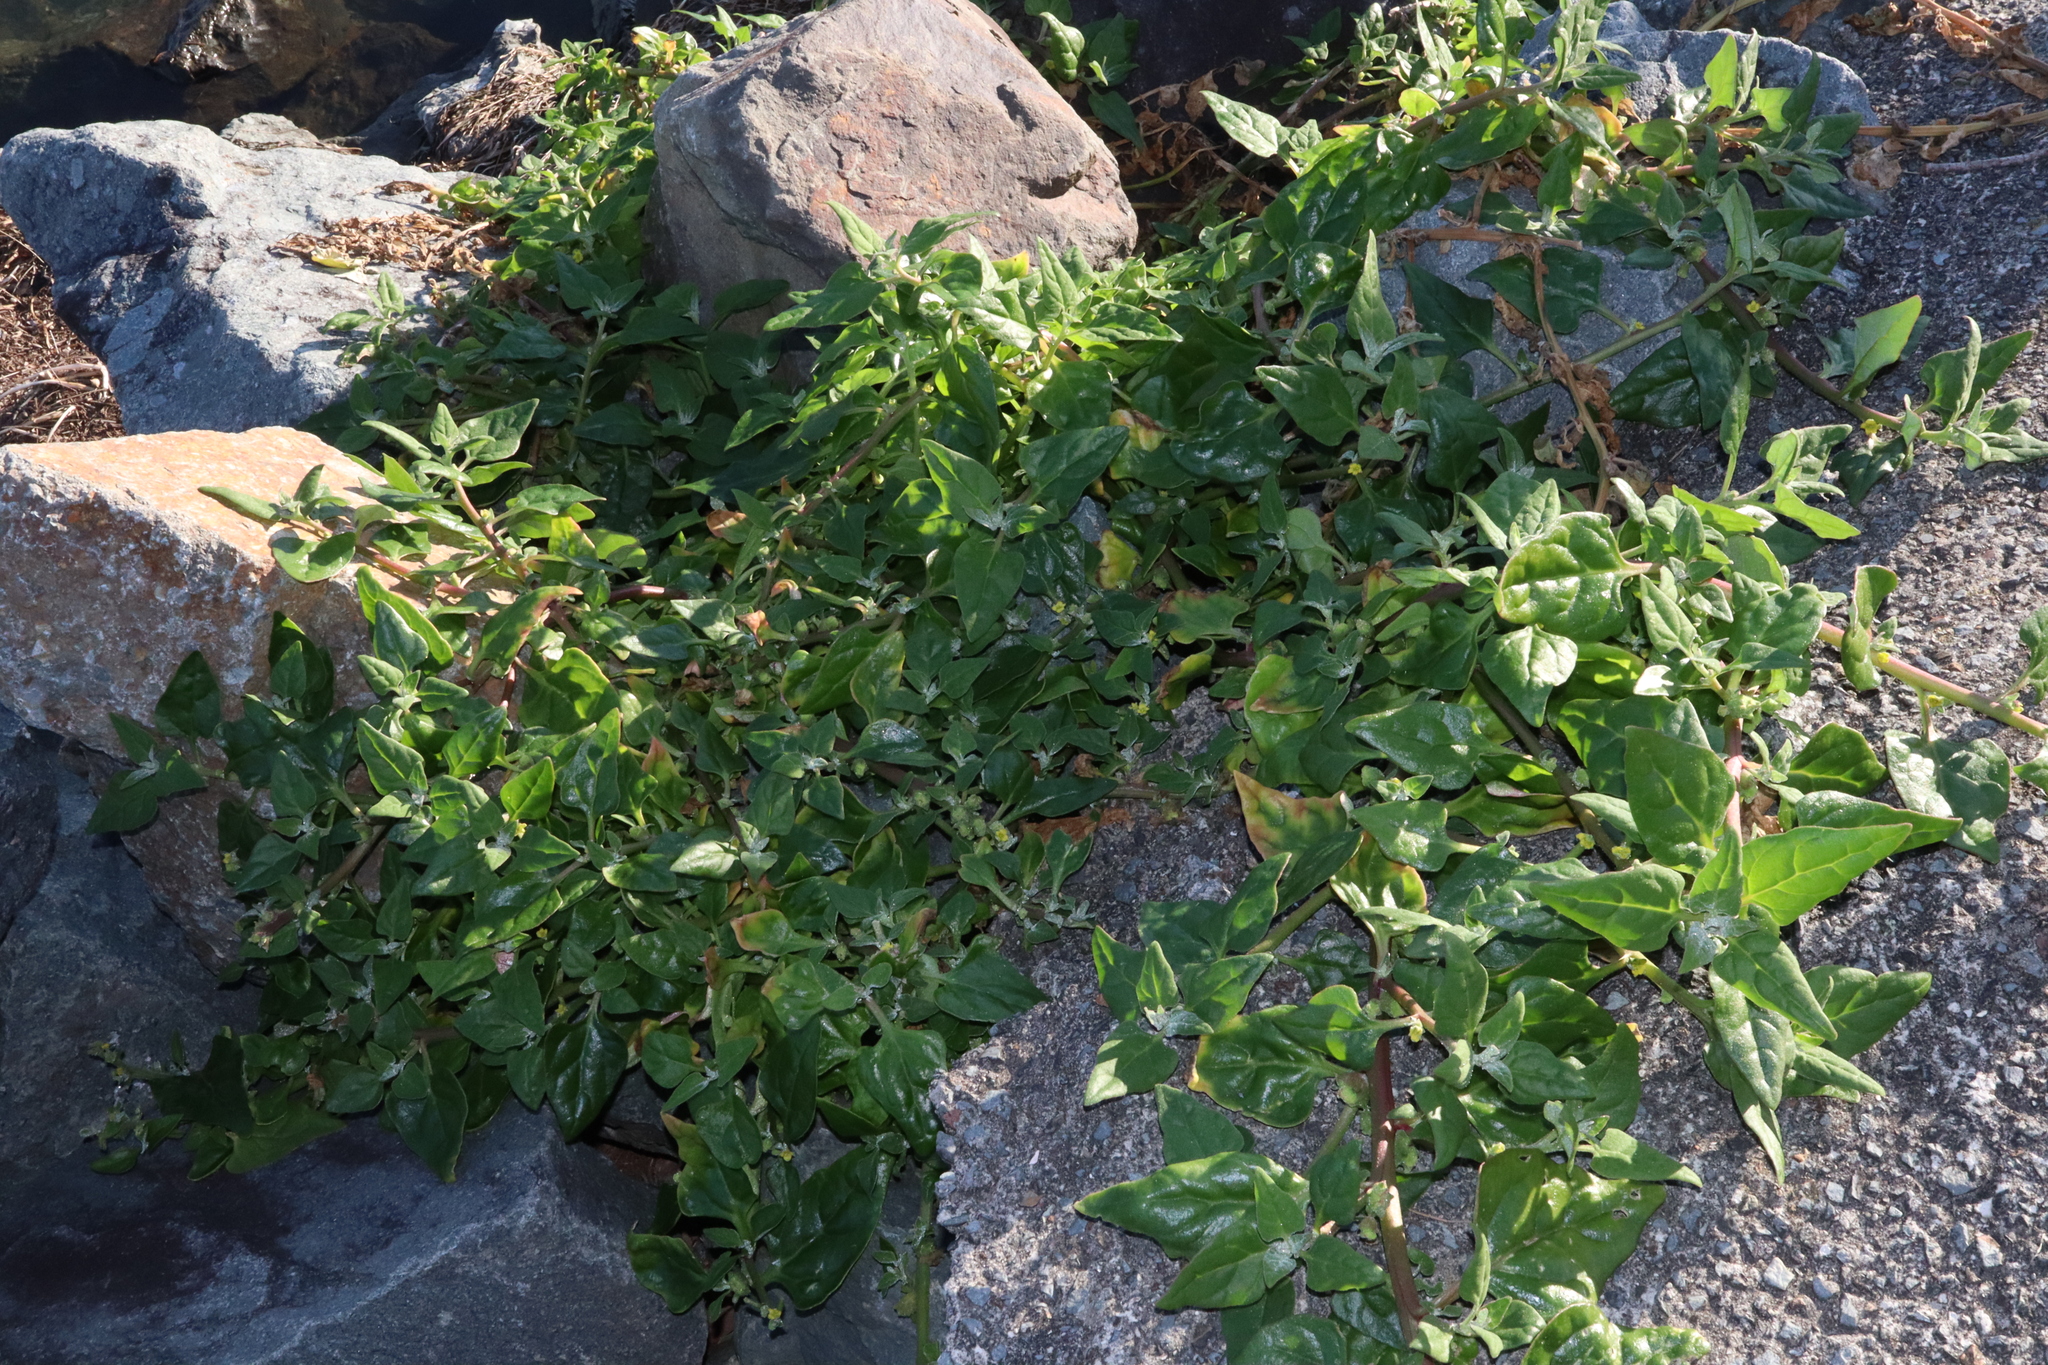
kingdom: Plantae
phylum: Tracheophyta
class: Magnoliopsida
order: Caryophyllales
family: Aizoaceae
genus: Tetragonia
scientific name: Tetragonia tetragonoides
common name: New zealand-spinach
